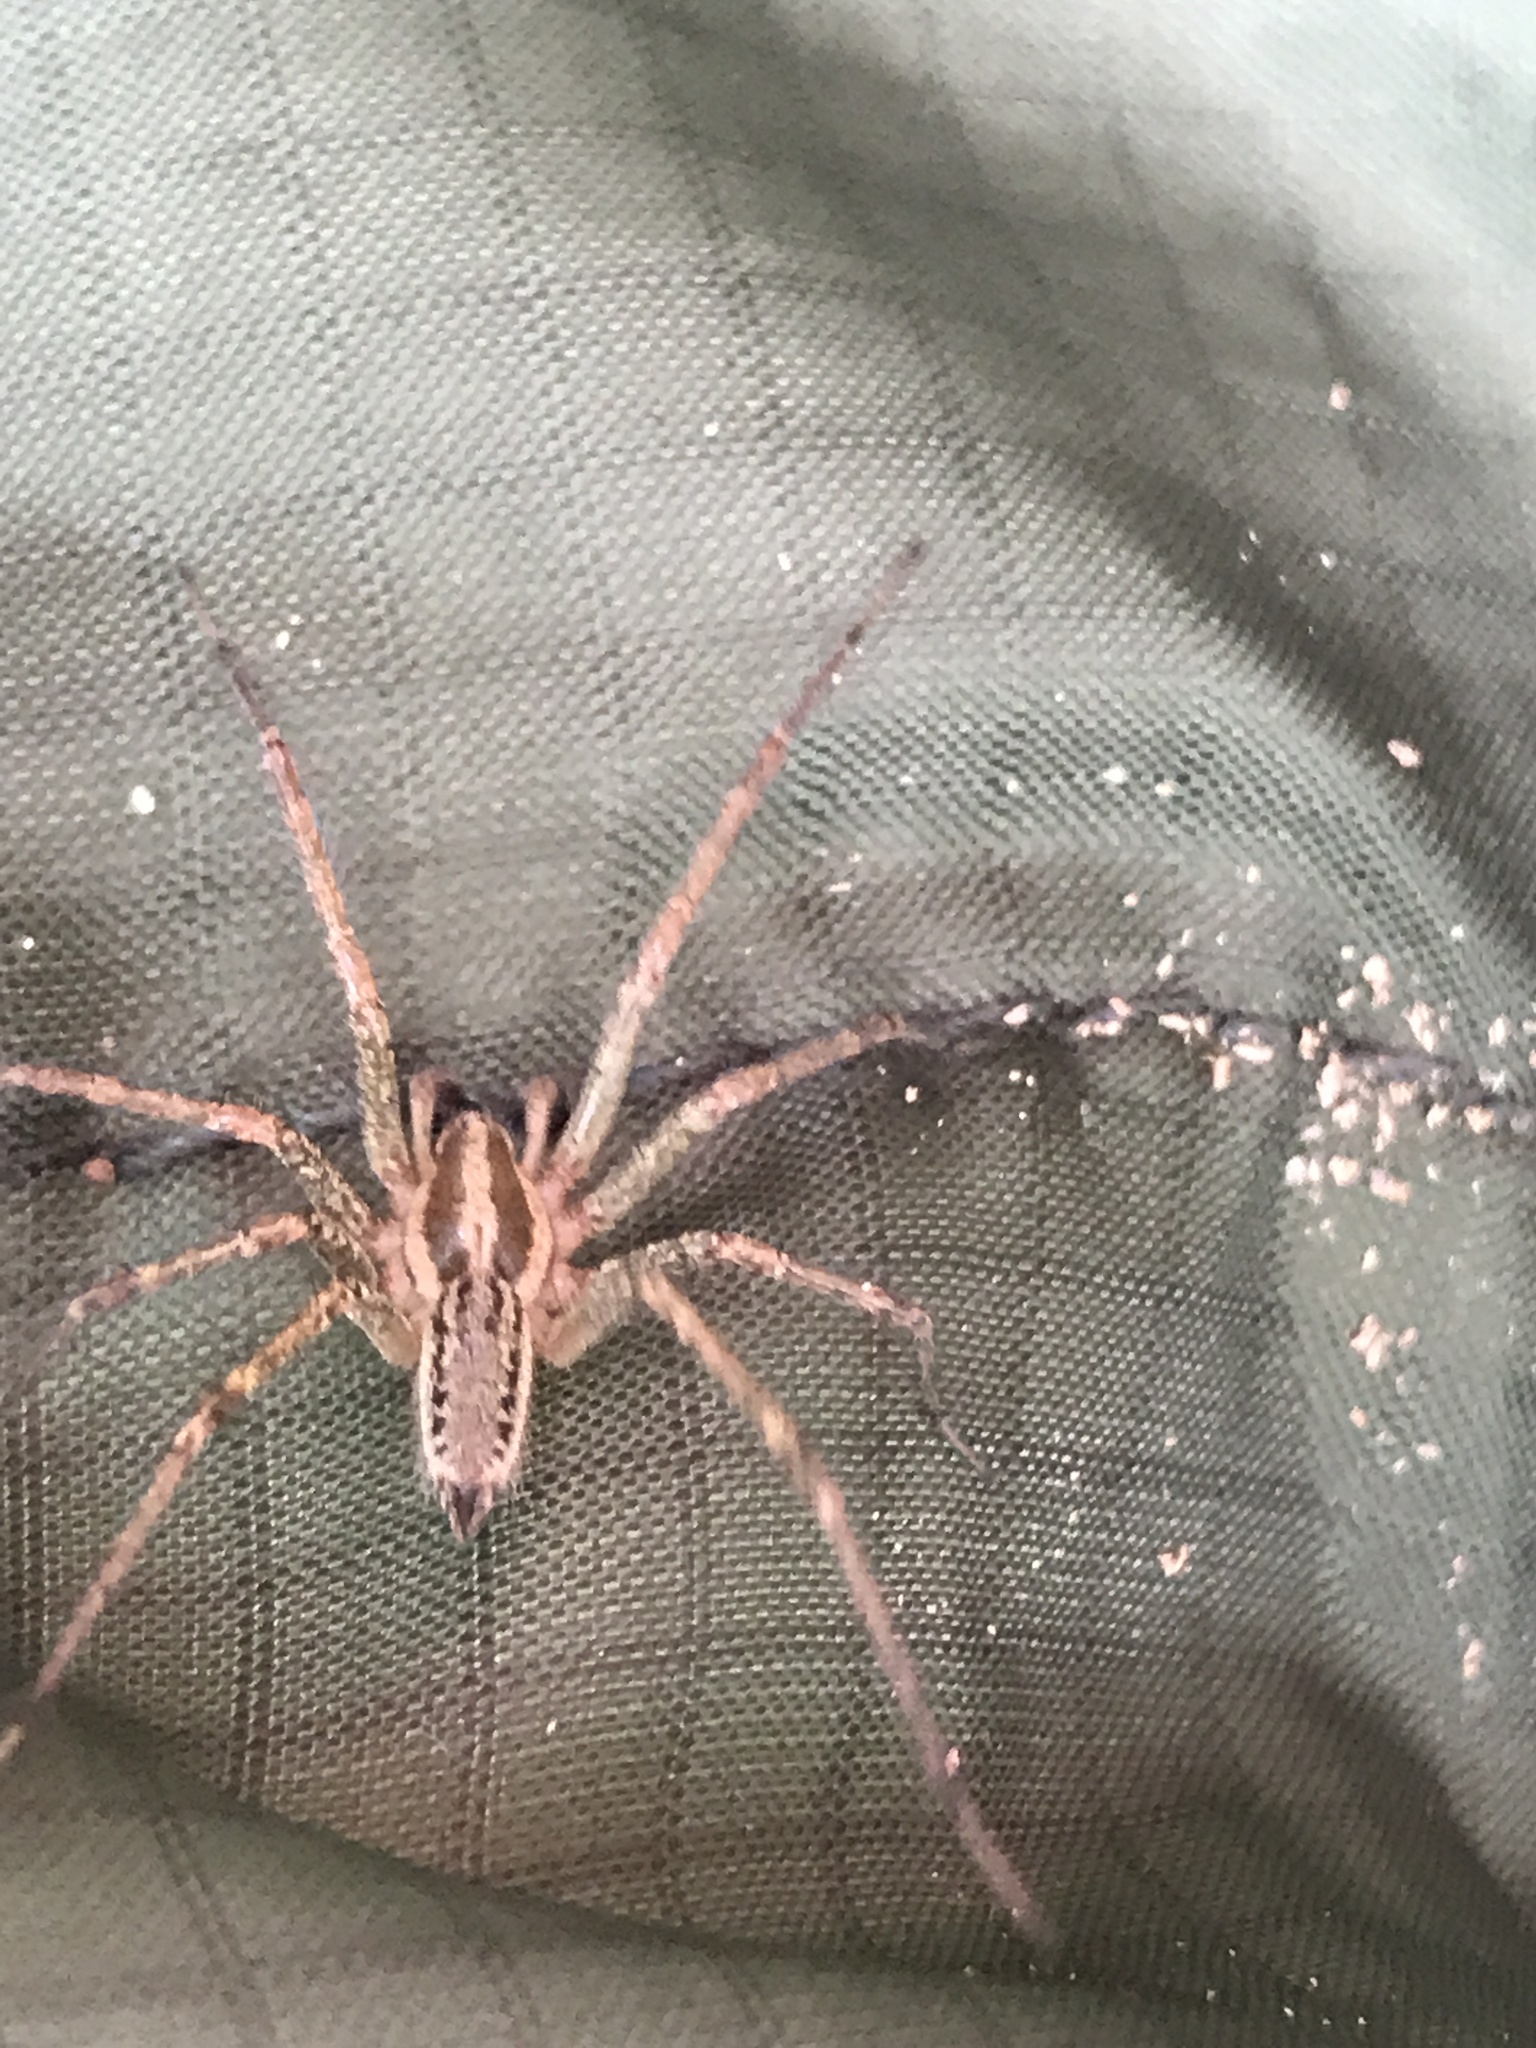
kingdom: Animalia
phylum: Arthropoda
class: Arachnida
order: Araneae
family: Agelenidae
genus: Agelenopsis
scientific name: Agelenopsis
